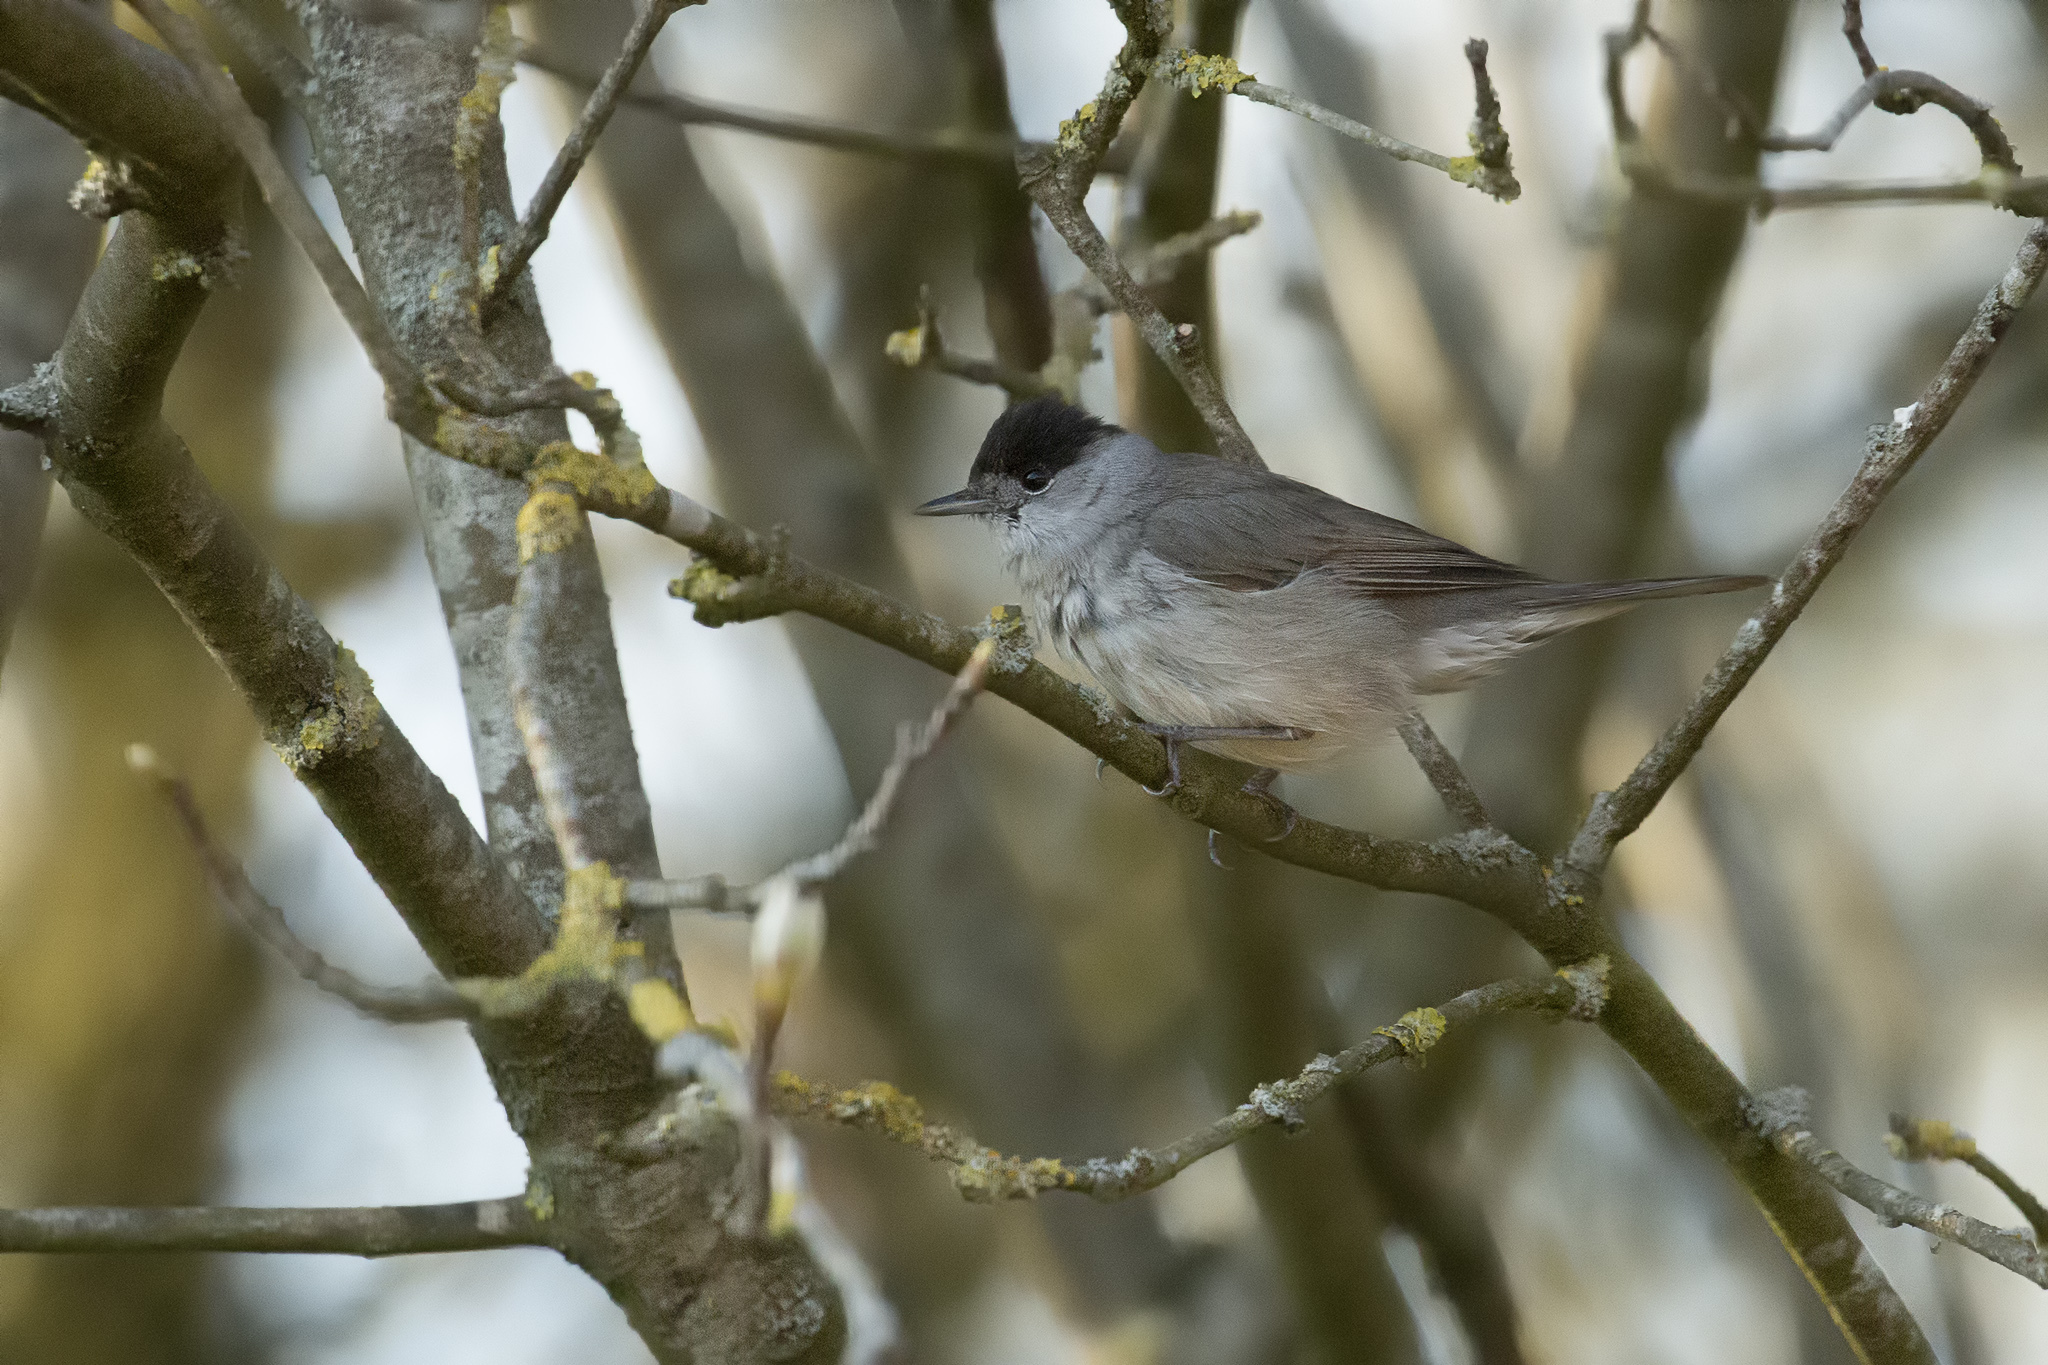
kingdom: Animalia
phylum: Chordata
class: Aves
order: Passeriformes
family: Sylviidae
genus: Sylvia
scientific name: Sylvia atricapilla
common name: Eurasian blackcap
